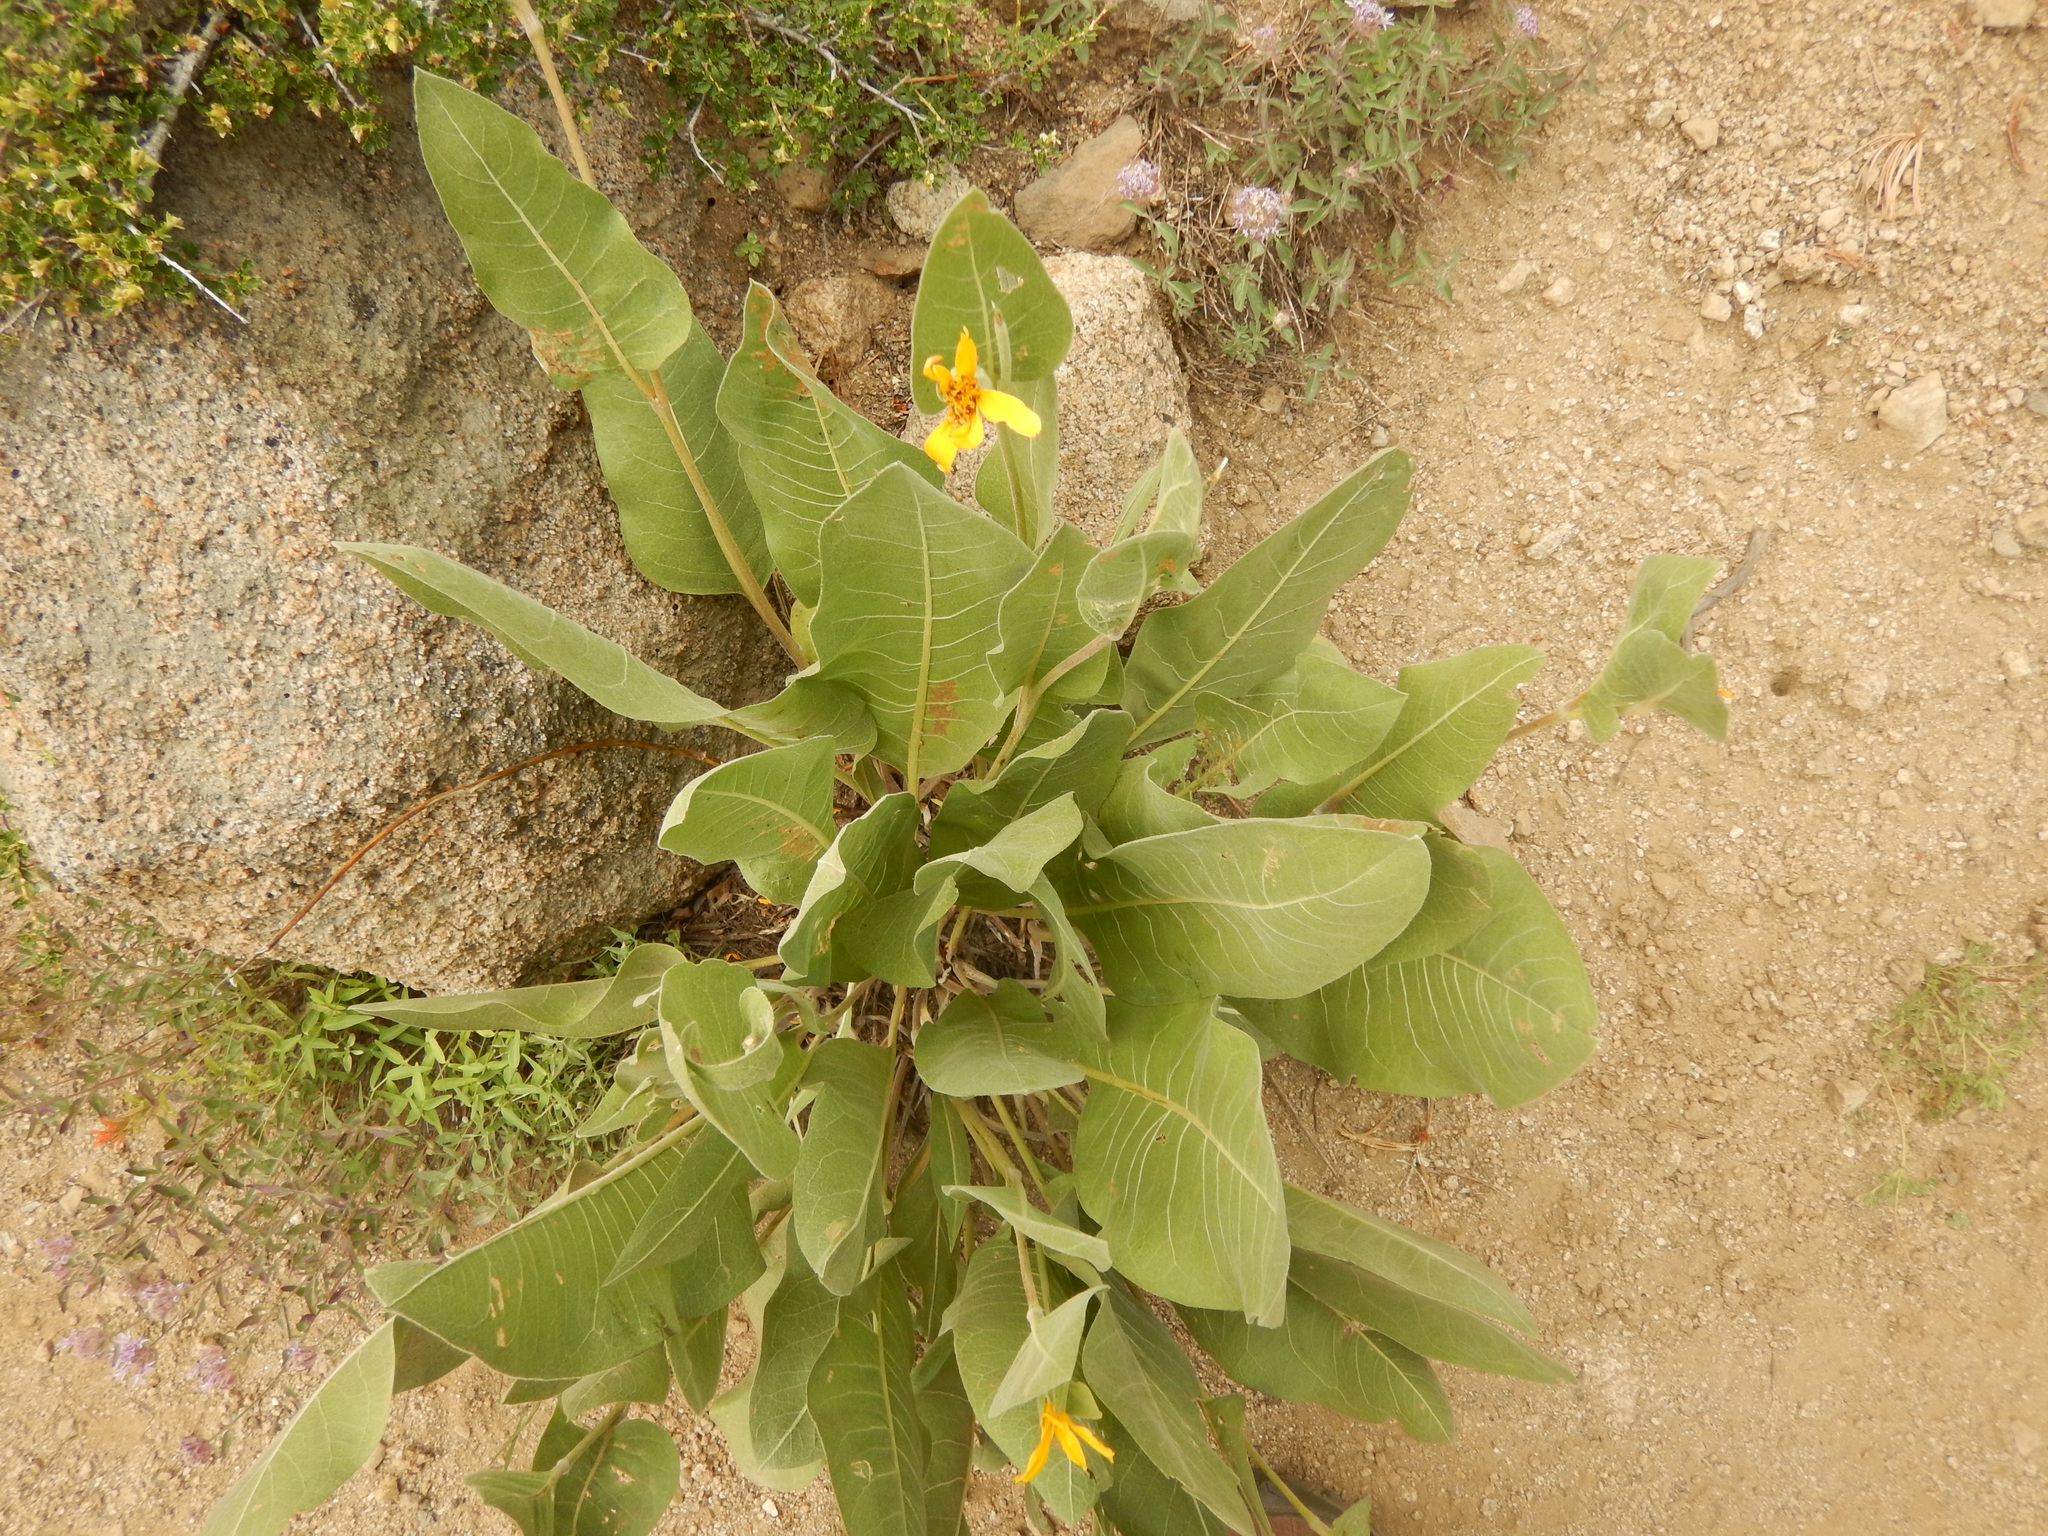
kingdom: Plantae
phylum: Tracheophyta
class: Magnoliopsida
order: Asterales
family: Asteraceae
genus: Wyethia
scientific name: Wyethia mollis
